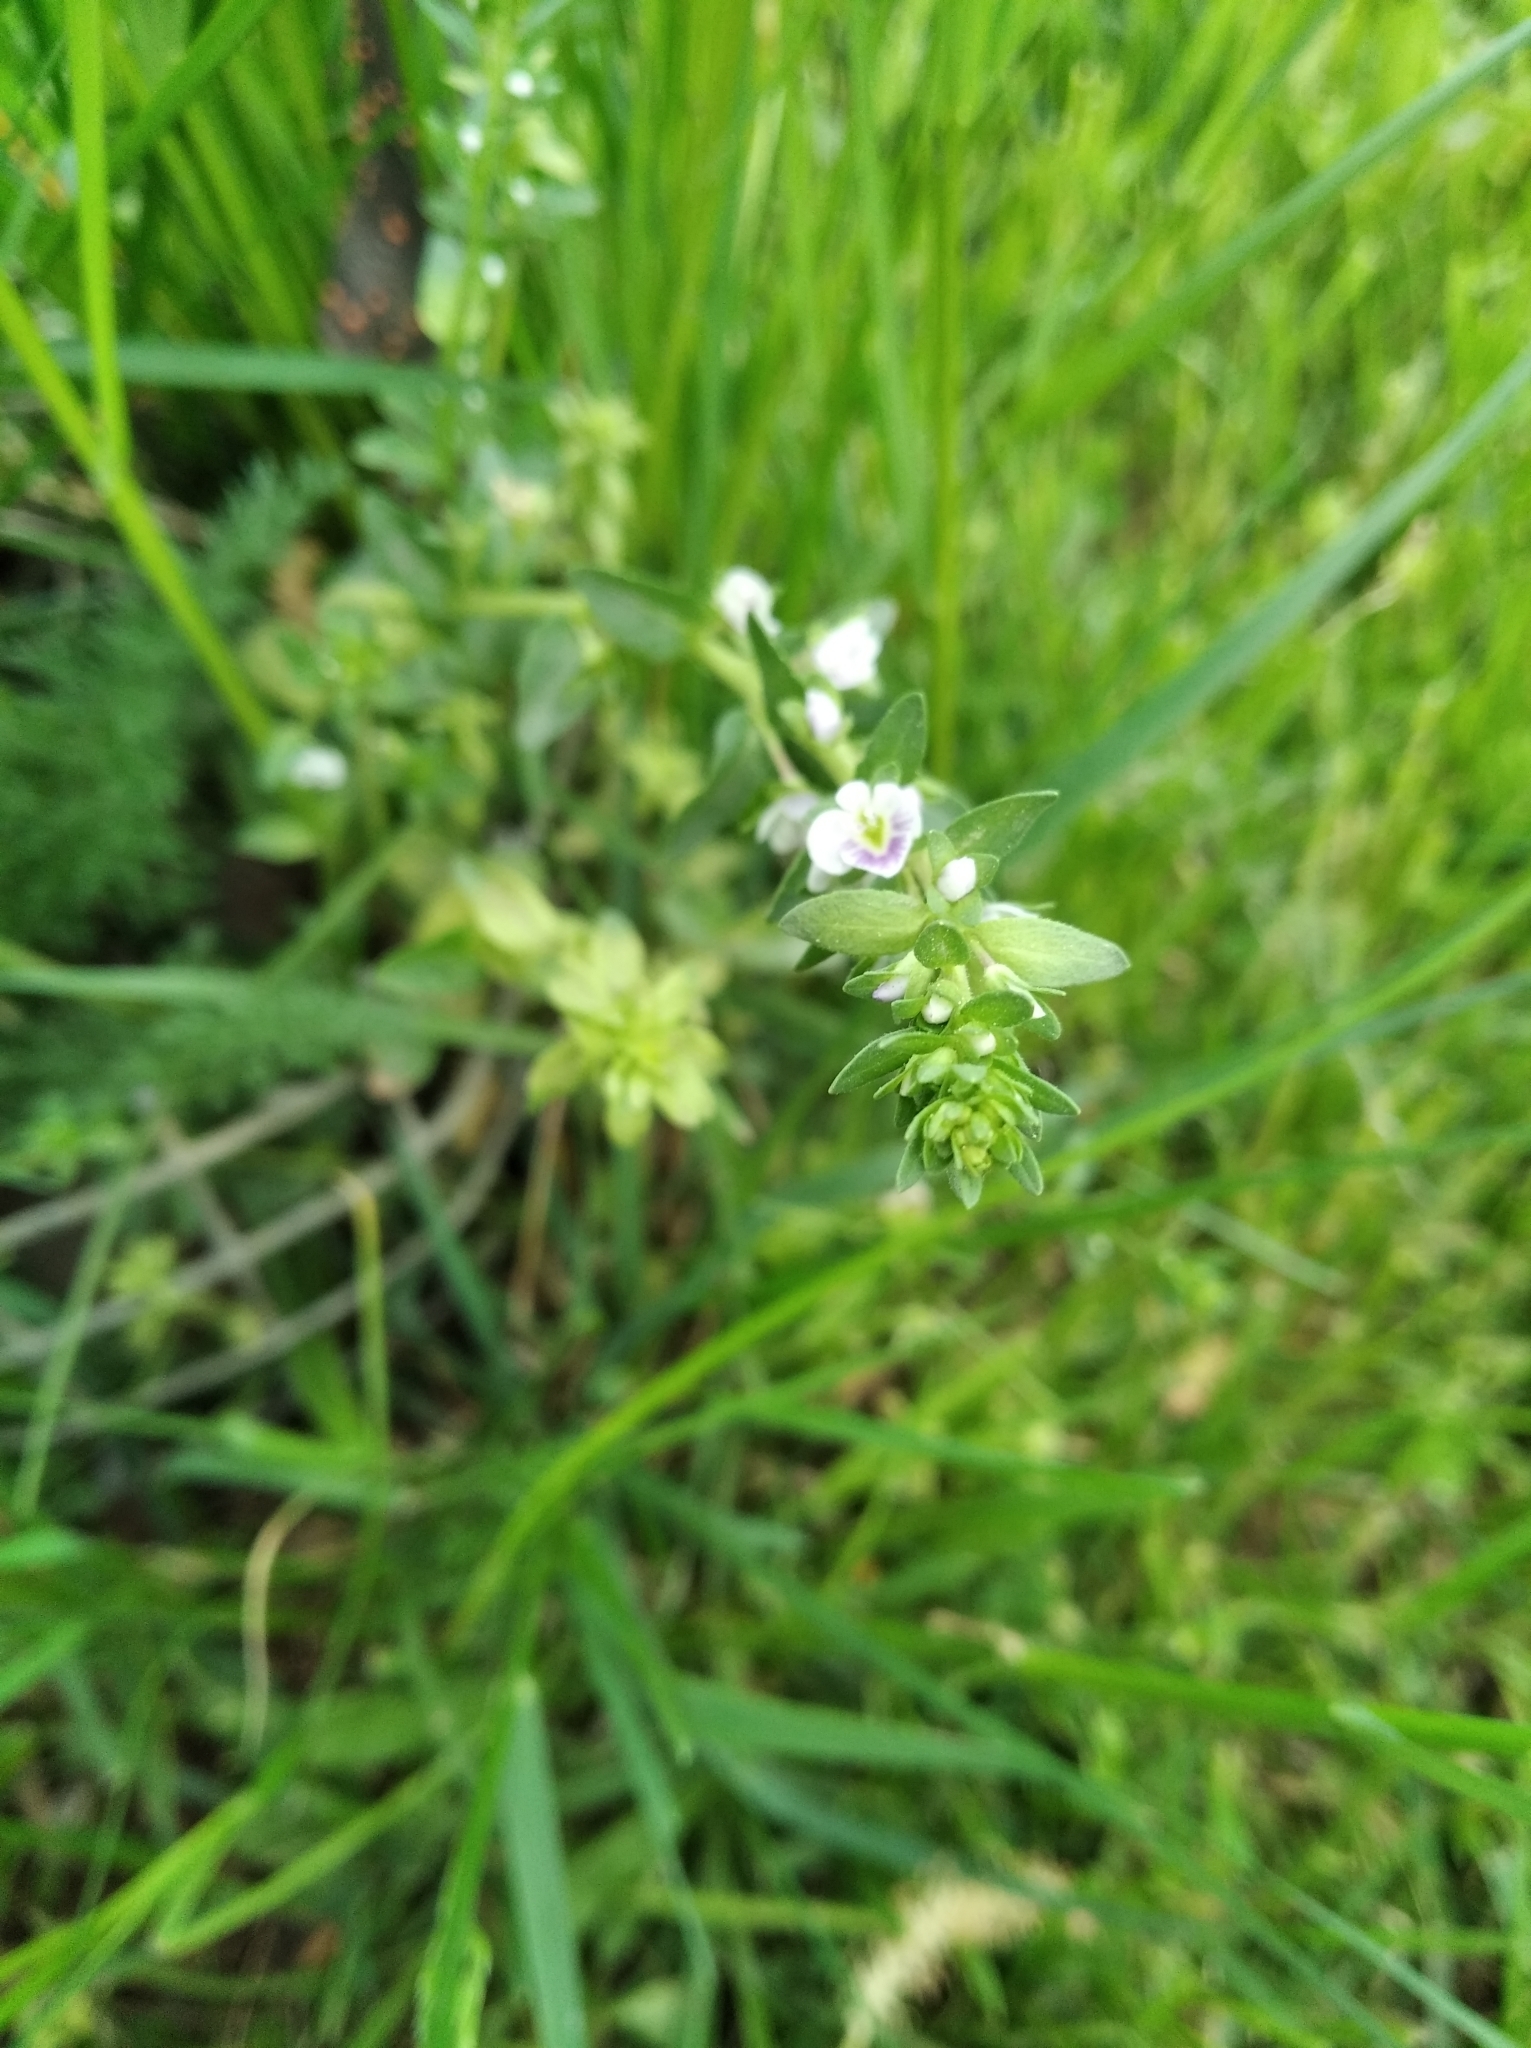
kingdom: Plantae
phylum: Tracheophyta
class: Magnoliopsida
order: Lamiales
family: Plantaginaceae
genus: Veronica
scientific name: Veronica serpyllifolia
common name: Thyme-leaved speedwell
